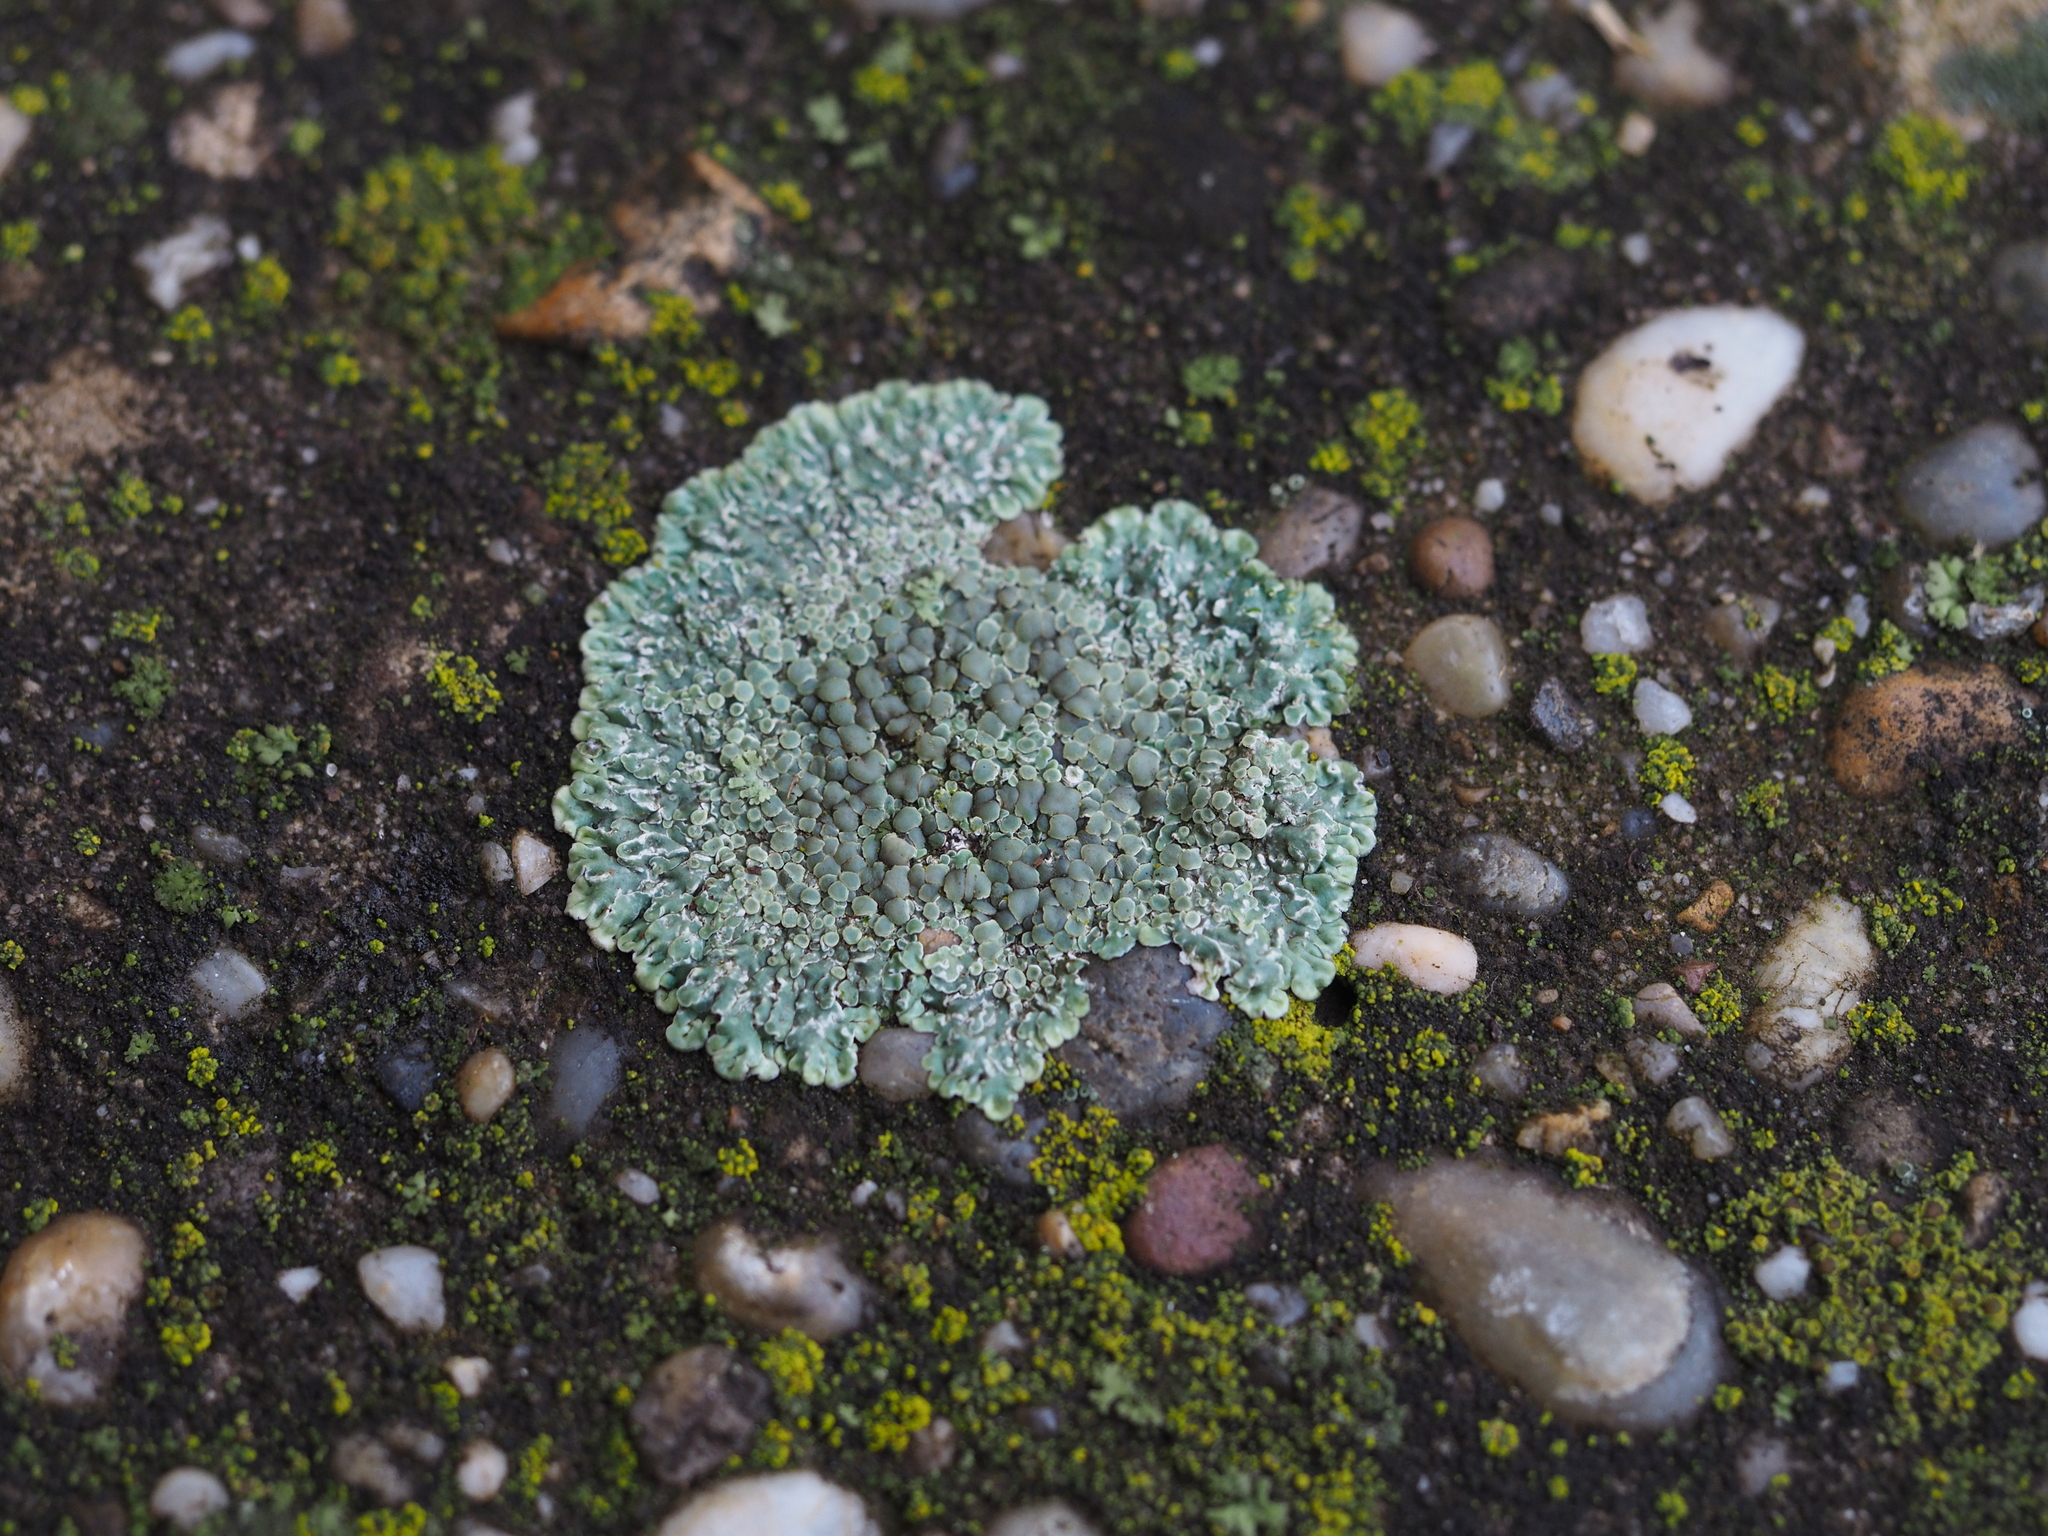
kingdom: Fungi
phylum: Ascomycota
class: Lecanoromycetes
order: Lecanorales
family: Lecanoraceae
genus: Protoparmeliopsis
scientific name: Protoparmeliopsis muralis
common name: Stonewall rim lichen
